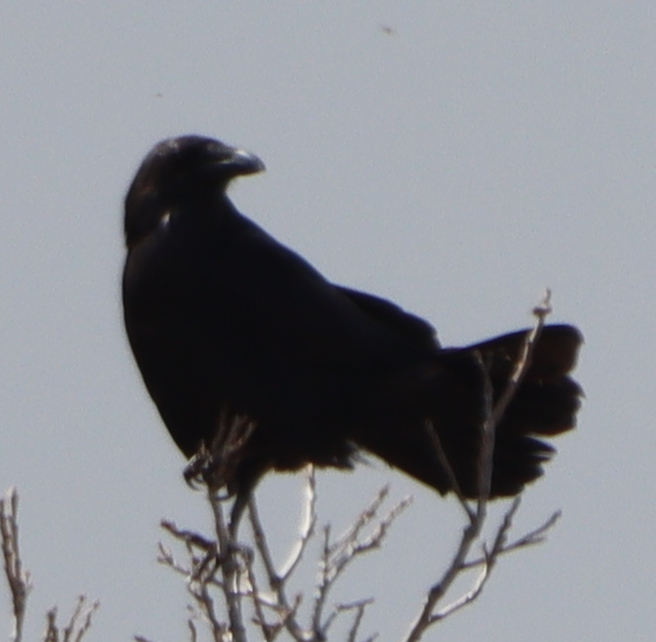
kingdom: Animalia
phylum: Chordata
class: Aves
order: Passeriformes
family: Corvidae
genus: Corvus
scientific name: Corvus corax
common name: Common raven
